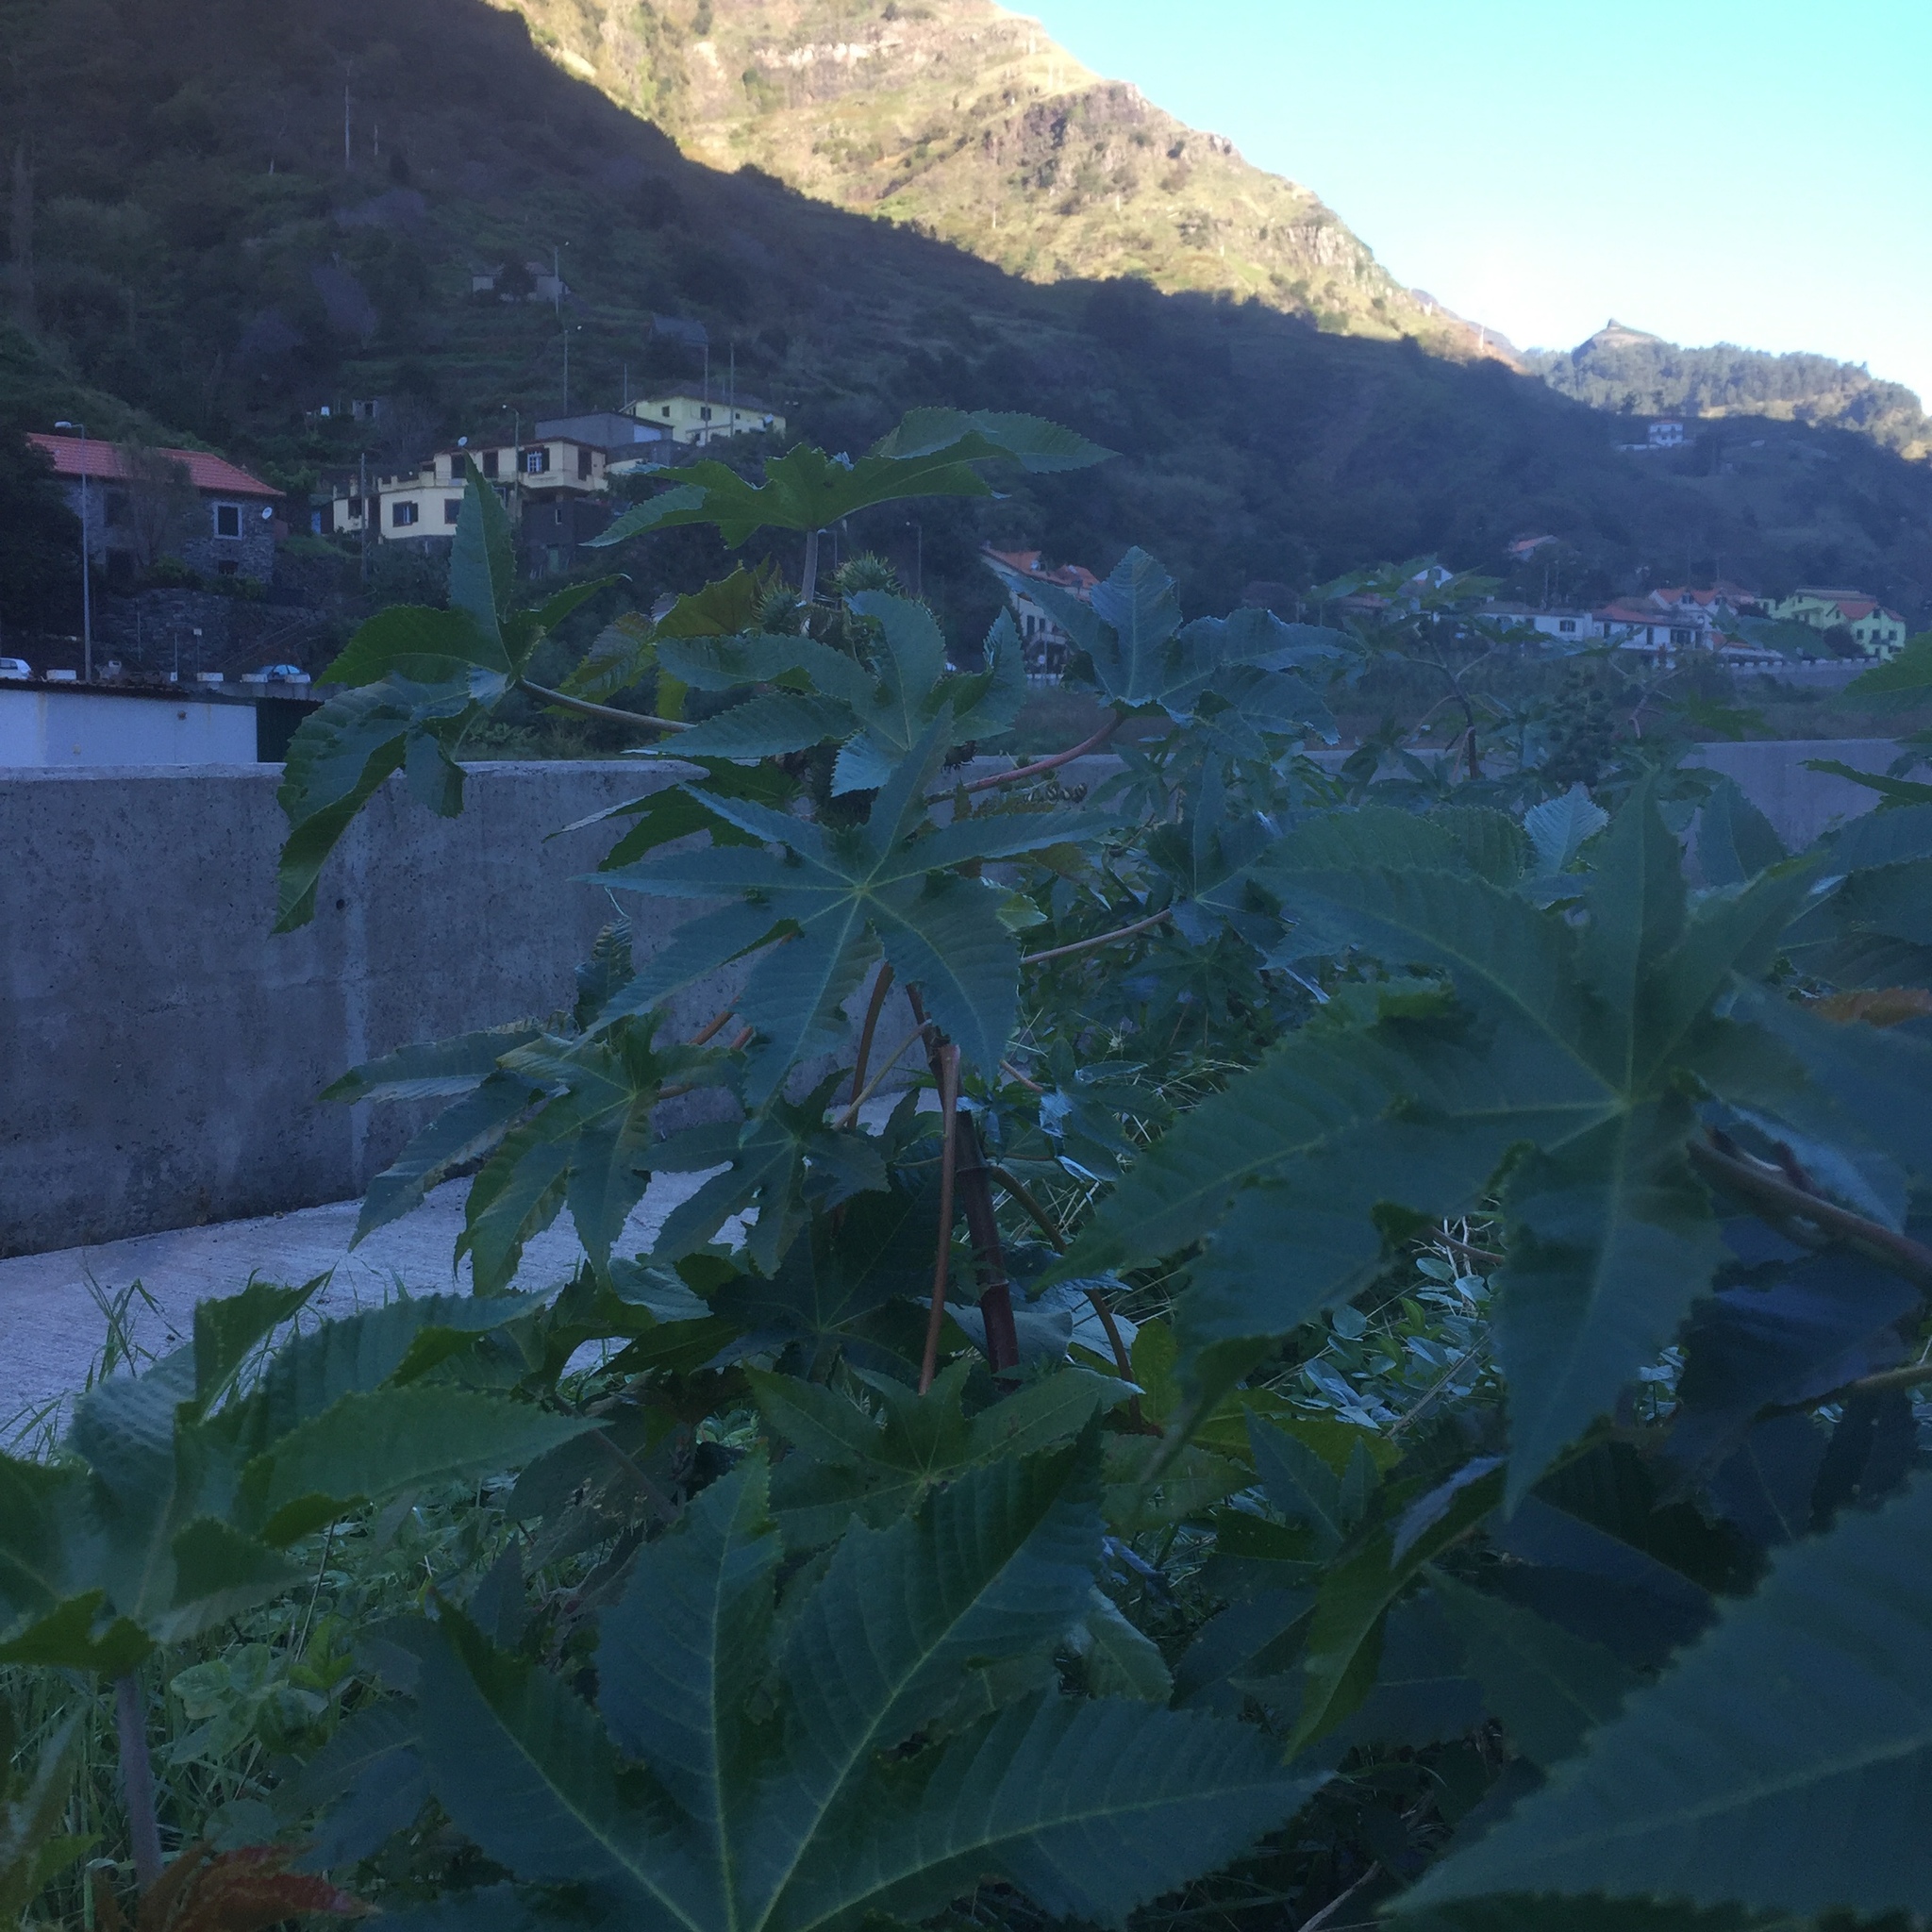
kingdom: Plantae
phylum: Tracheophyta
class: Magnoliopsida
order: Malpighiales
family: Euphorbiaceae
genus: Ricinus
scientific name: Ricinus communis
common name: Castor-oil-plant
